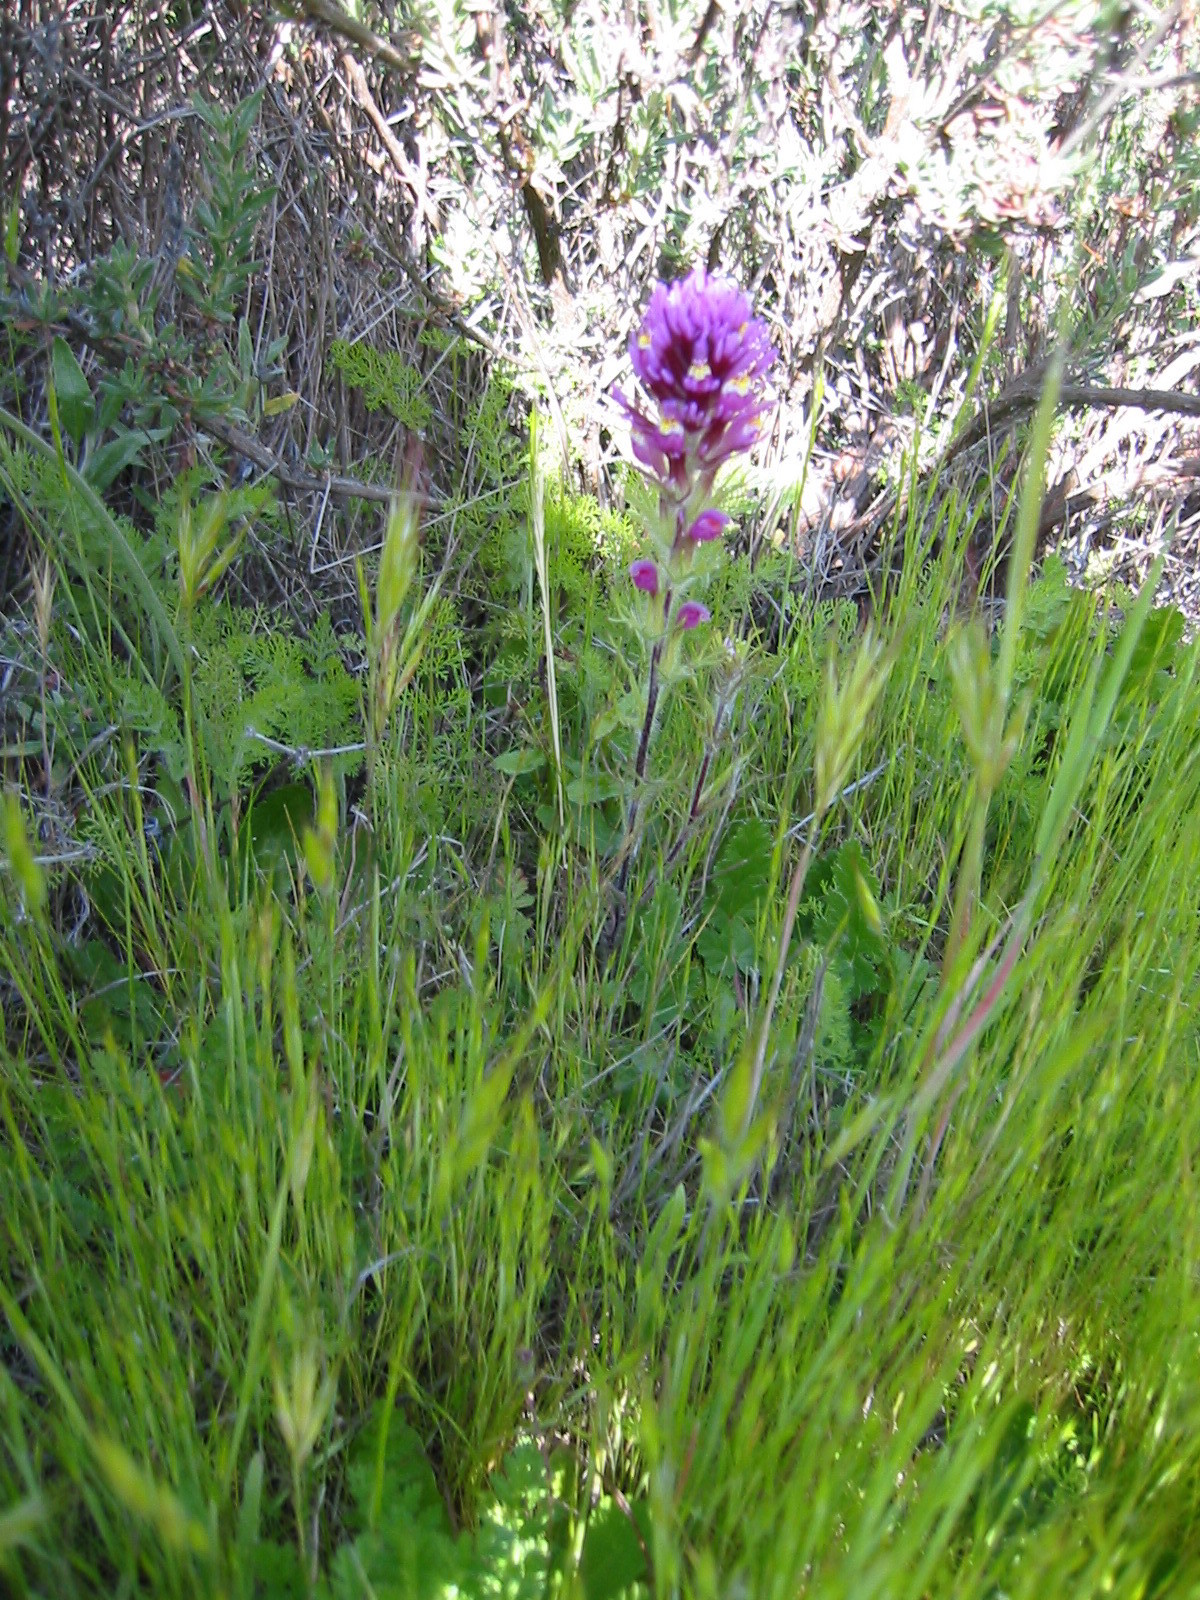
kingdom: Plantae
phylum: Tracheophyta
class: Magnoliopsida
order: Lamiales
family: Orobanchaceae
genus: Castilleja
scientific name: Castilleja exserta
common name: Purple owl-clover
